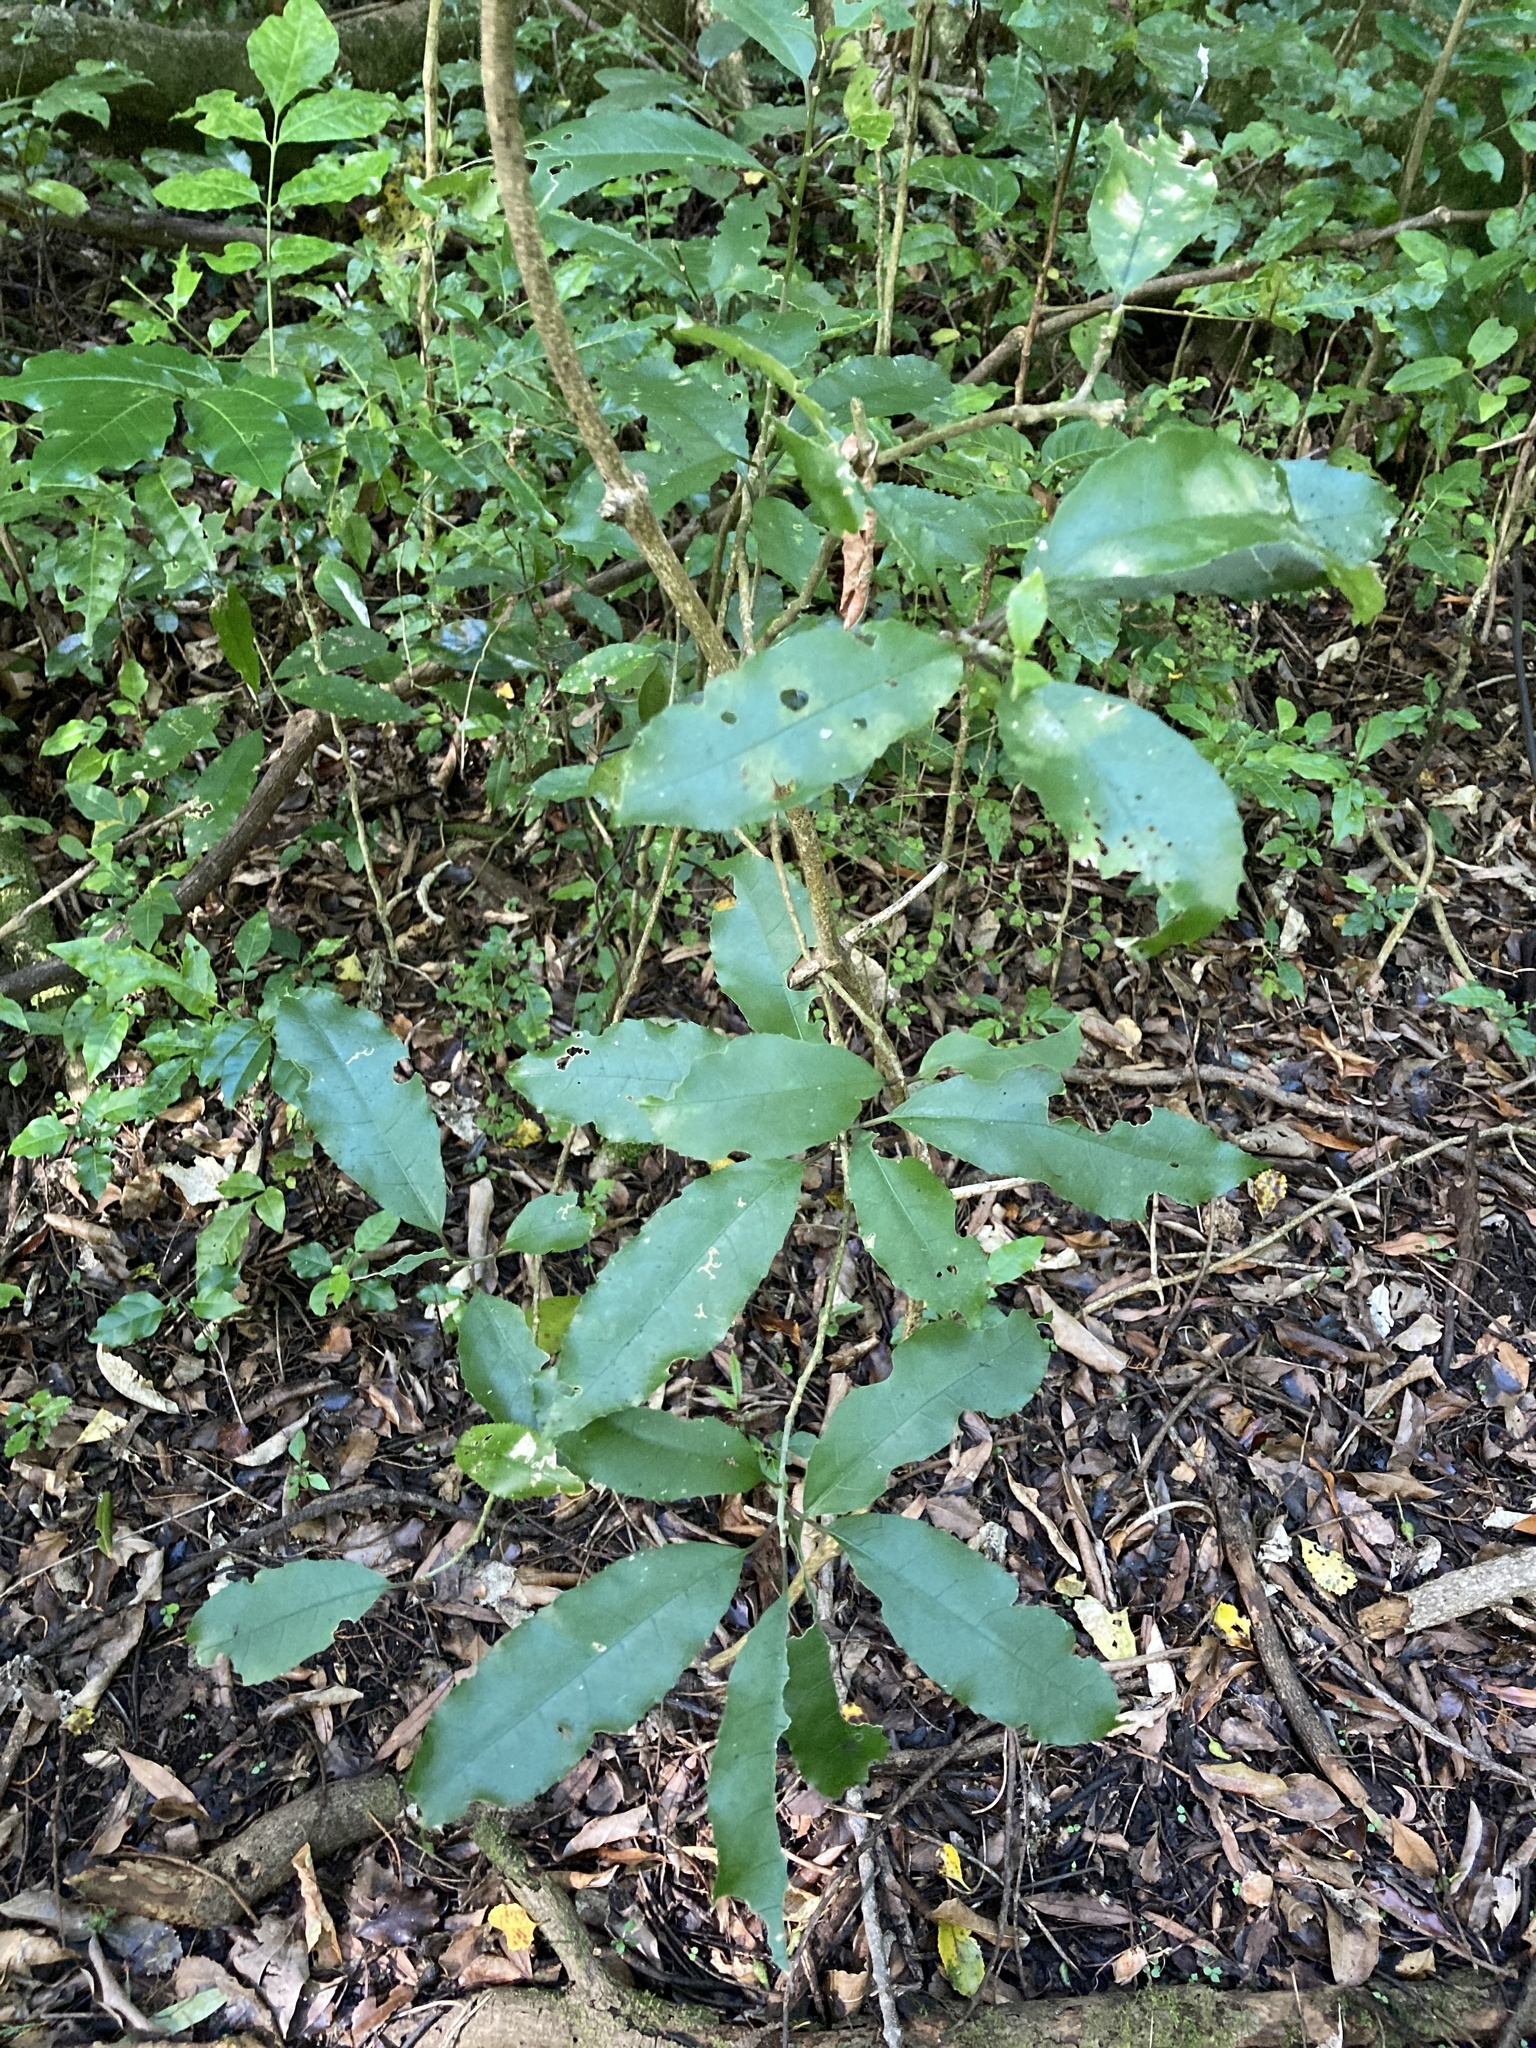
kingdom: Plantae
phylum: Tracheophyta
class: Magnoliopsida
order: Malpighiales
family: Violaceae
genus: Melicytus
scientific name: Melicytus ramiflorus
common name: Mahoe
